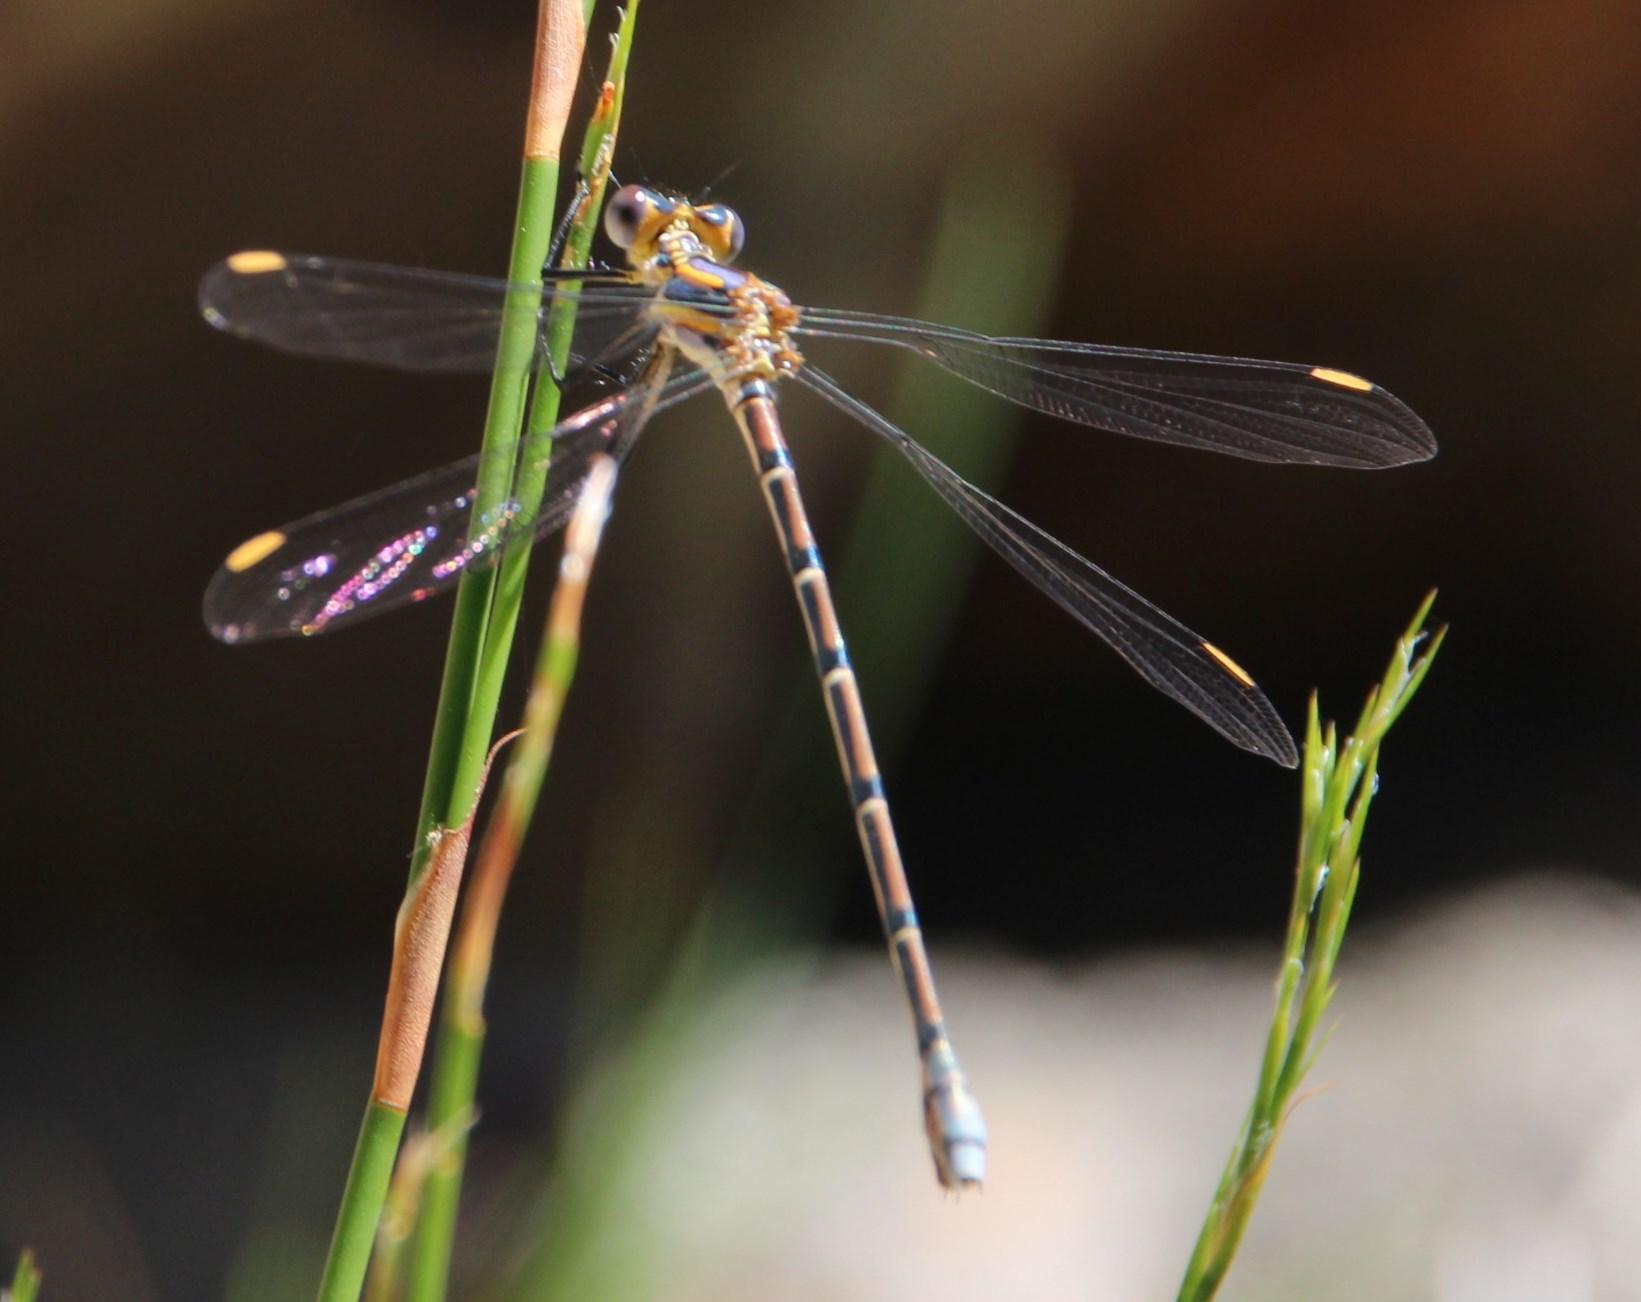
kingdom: Animalia
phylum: Arthropoda
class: Insecta
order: Odonata
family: Synlestidae
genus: Chlorolestes
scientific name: Chlorolestes conspicuus
